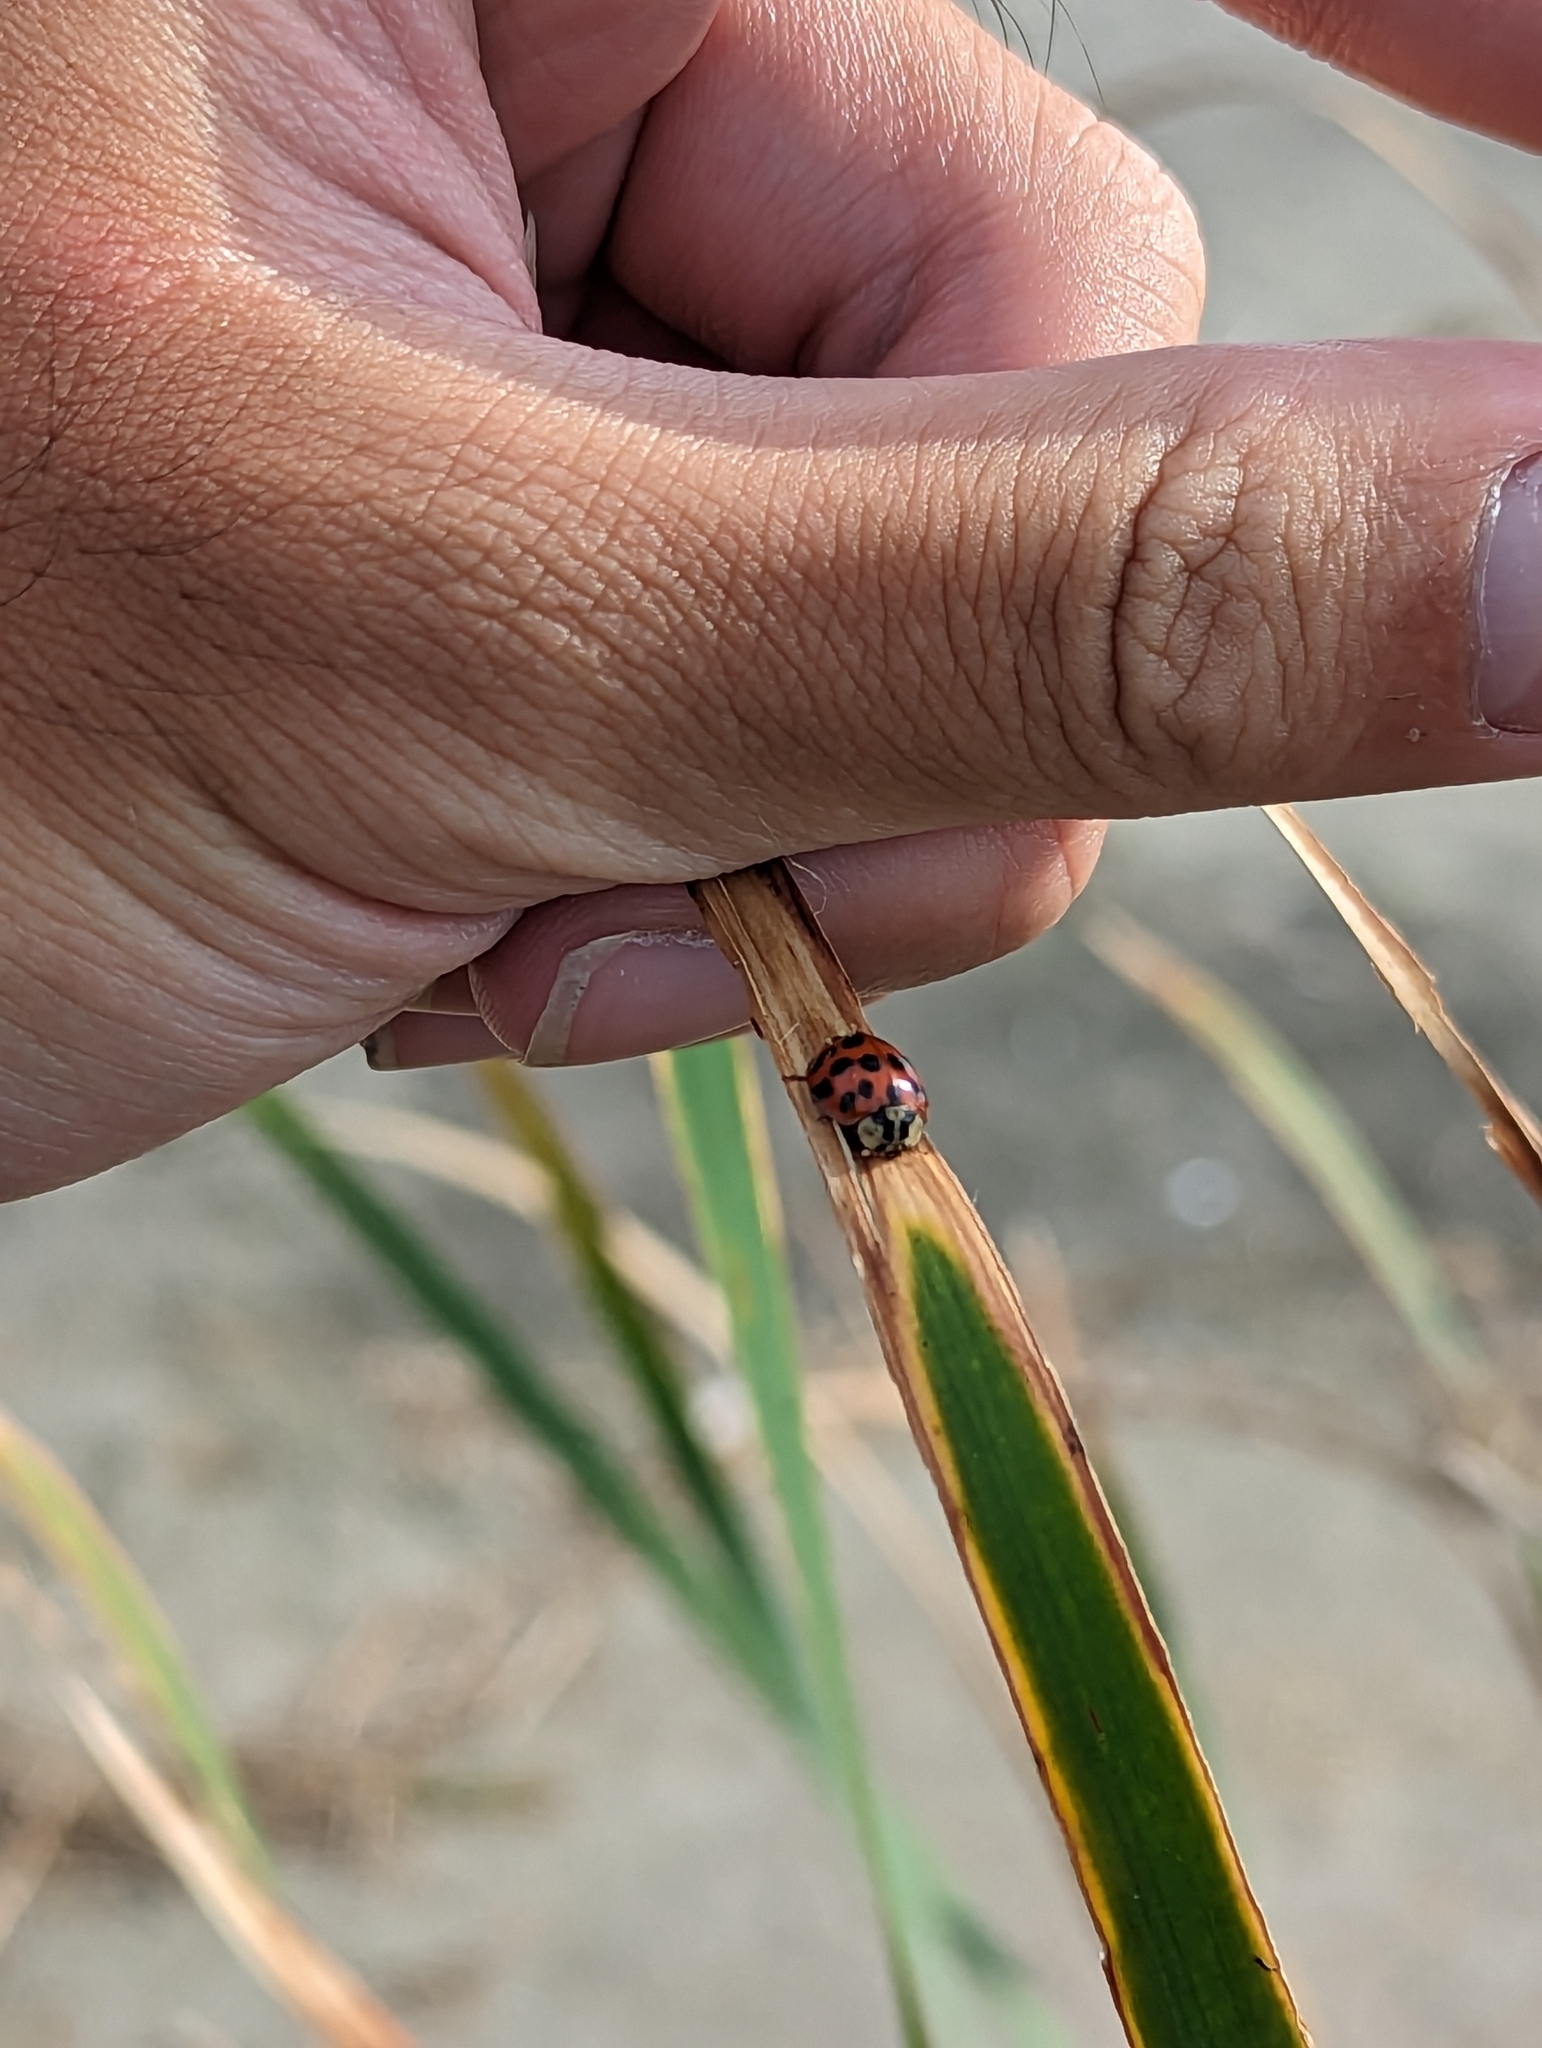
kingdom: Animalia
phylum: Arthropoda
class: Insecta
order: Coleoptera
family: Coccinellidae
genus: Harmonia
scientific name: Harmonia axyridis
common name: Harlequin ladybird
